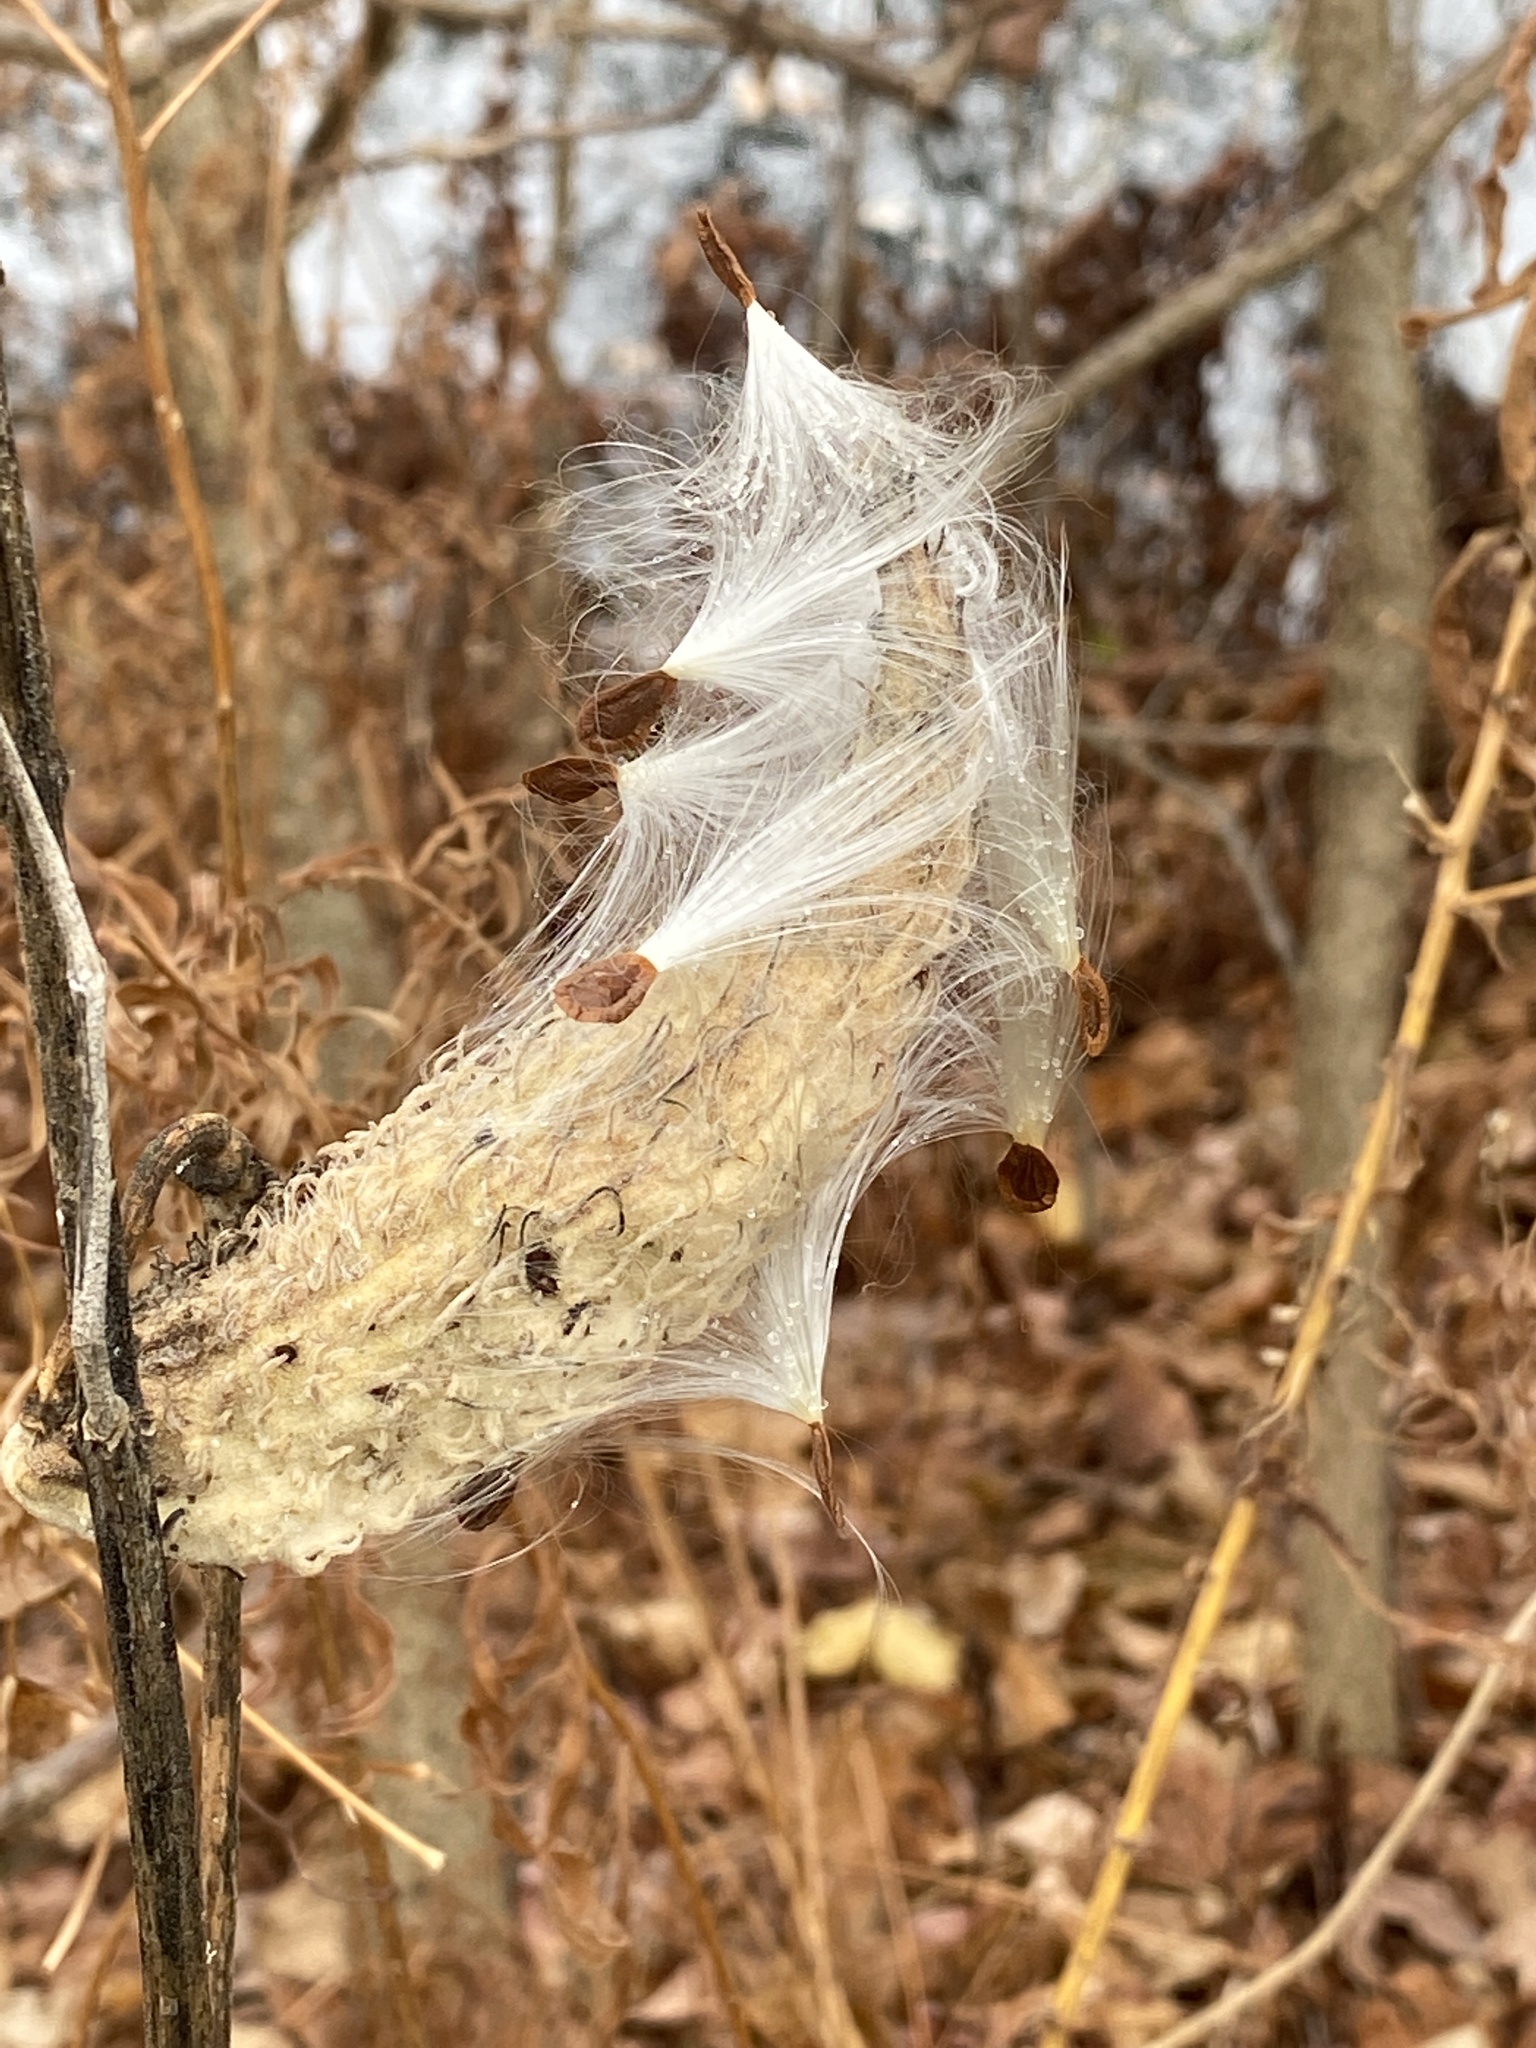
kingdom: Plantae
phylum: Tracheophyta
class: Magnoliopsida
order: Gentianales
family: Apocynaceae
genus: Asclepias
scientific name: Asclepias syriaca
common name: Common milkweed
